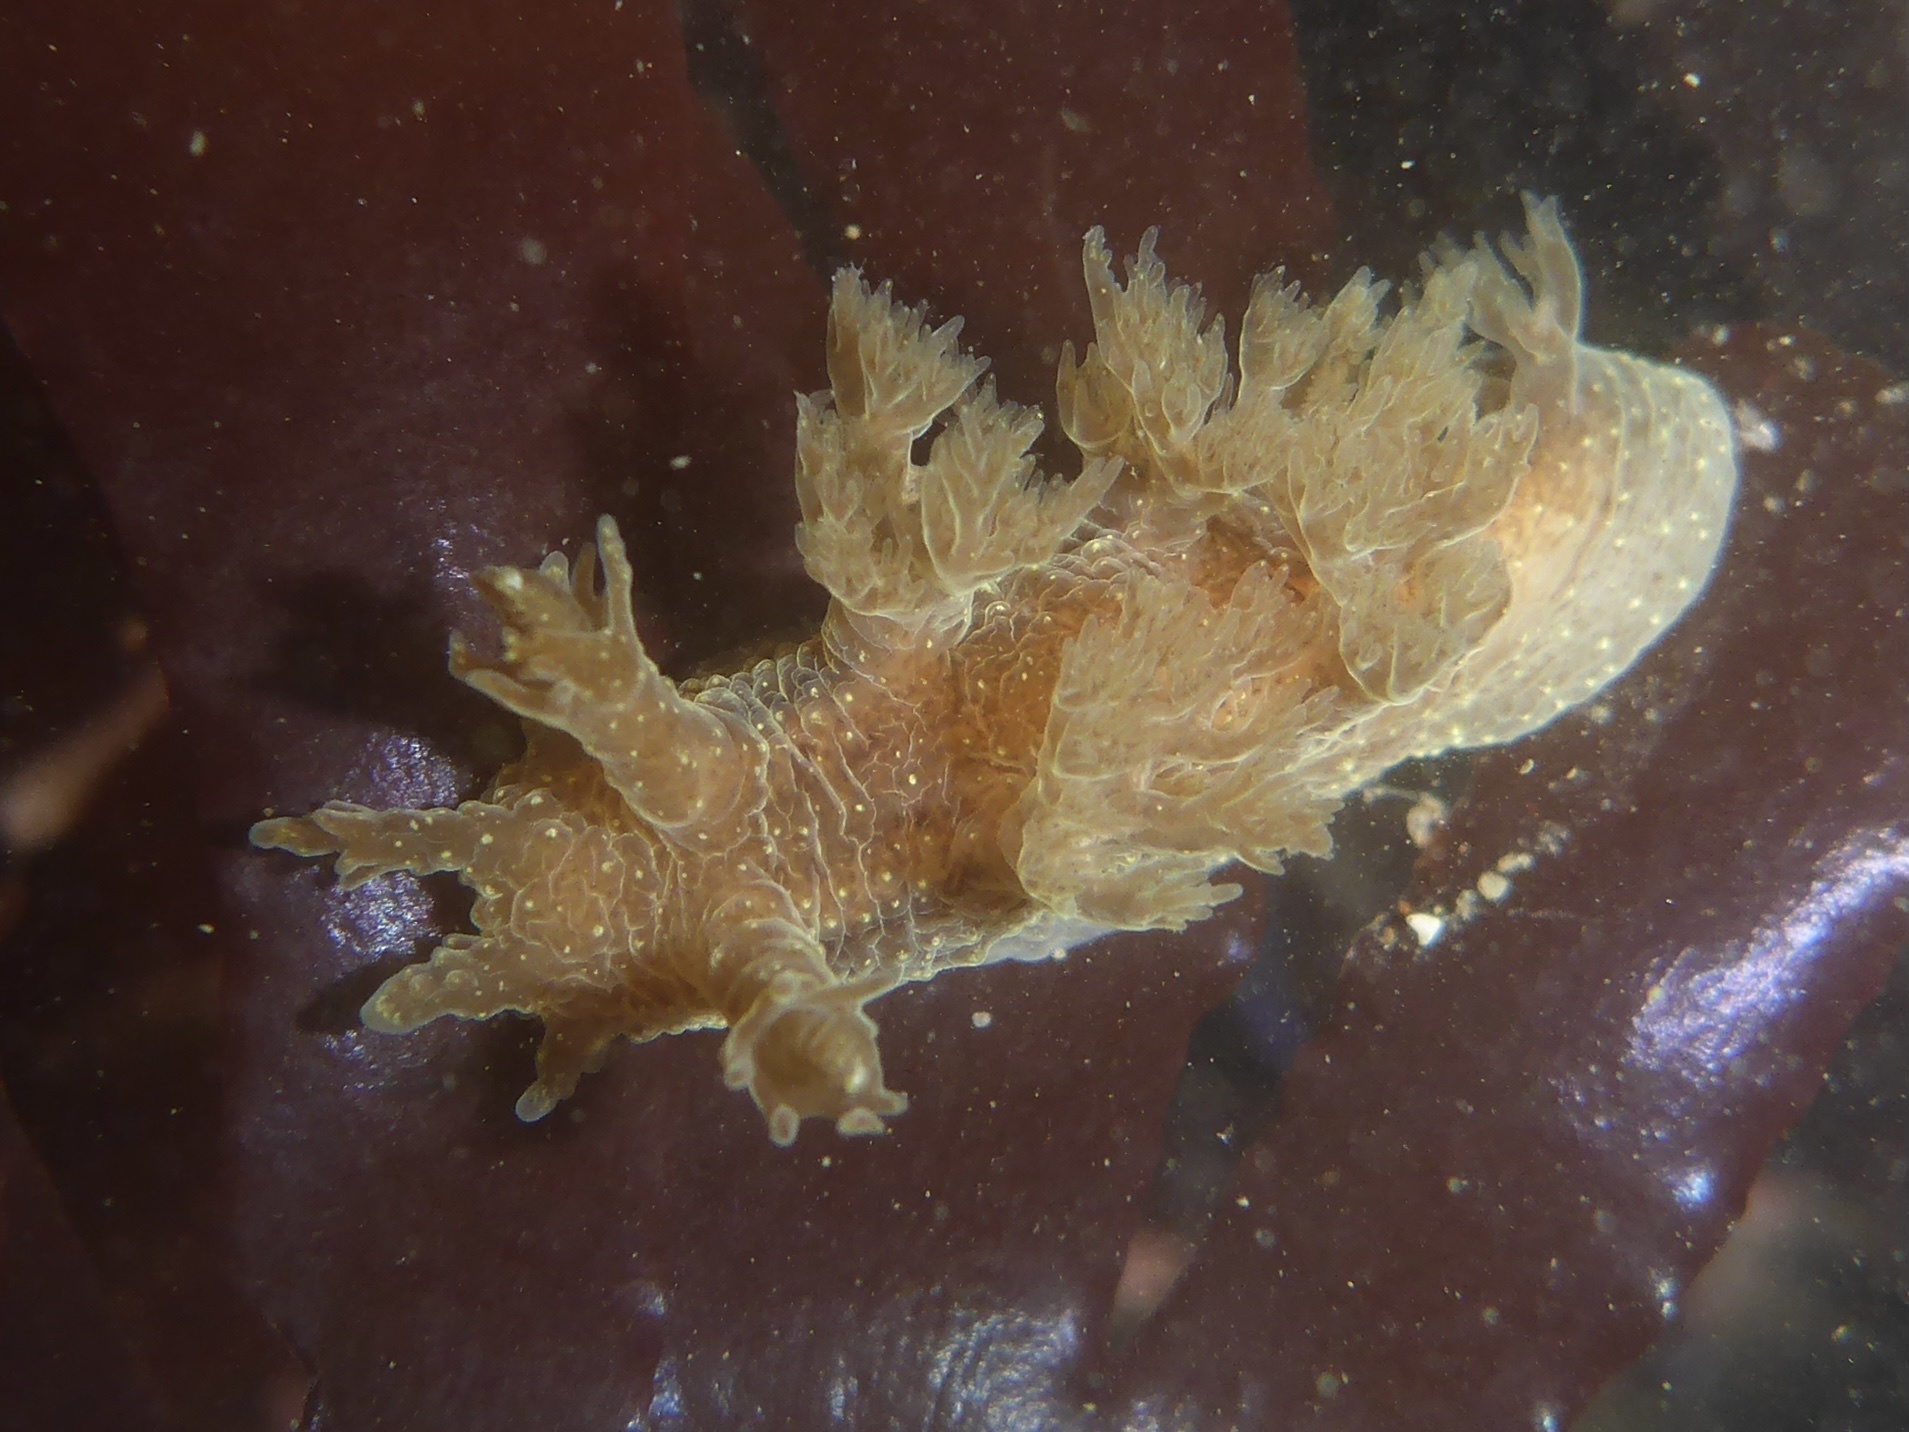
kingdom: Animalia
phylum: Mollusca
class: Gastropoda
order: Nudibranchia
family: Dendronotidae
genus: Dendronotus
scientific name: Dendronotus subramosus
